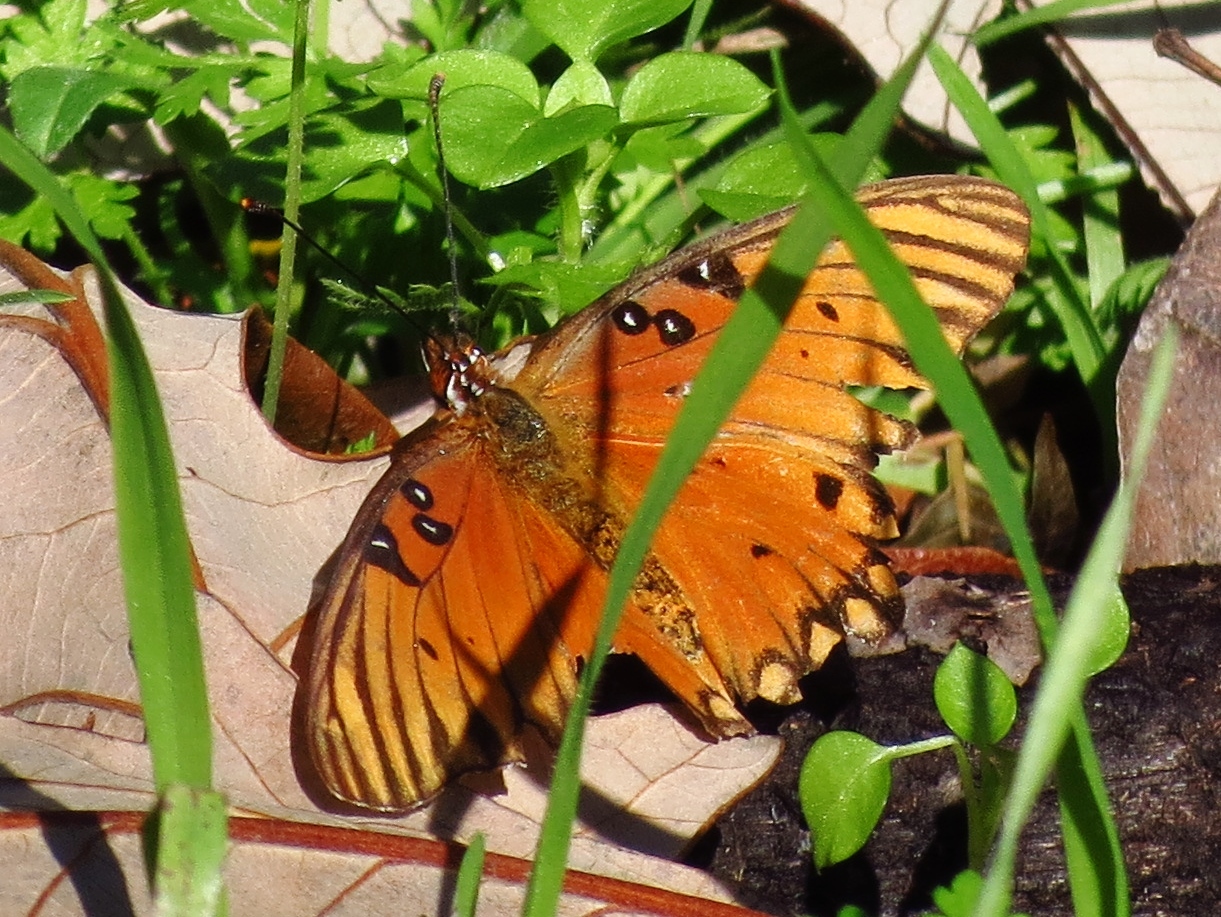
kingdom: Animalia
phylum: Arthropoda
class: Insecta
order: Lepidoptera
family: Nymphalidae
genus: Dione
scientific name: Dione vanillae
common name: Gulf fritillary
